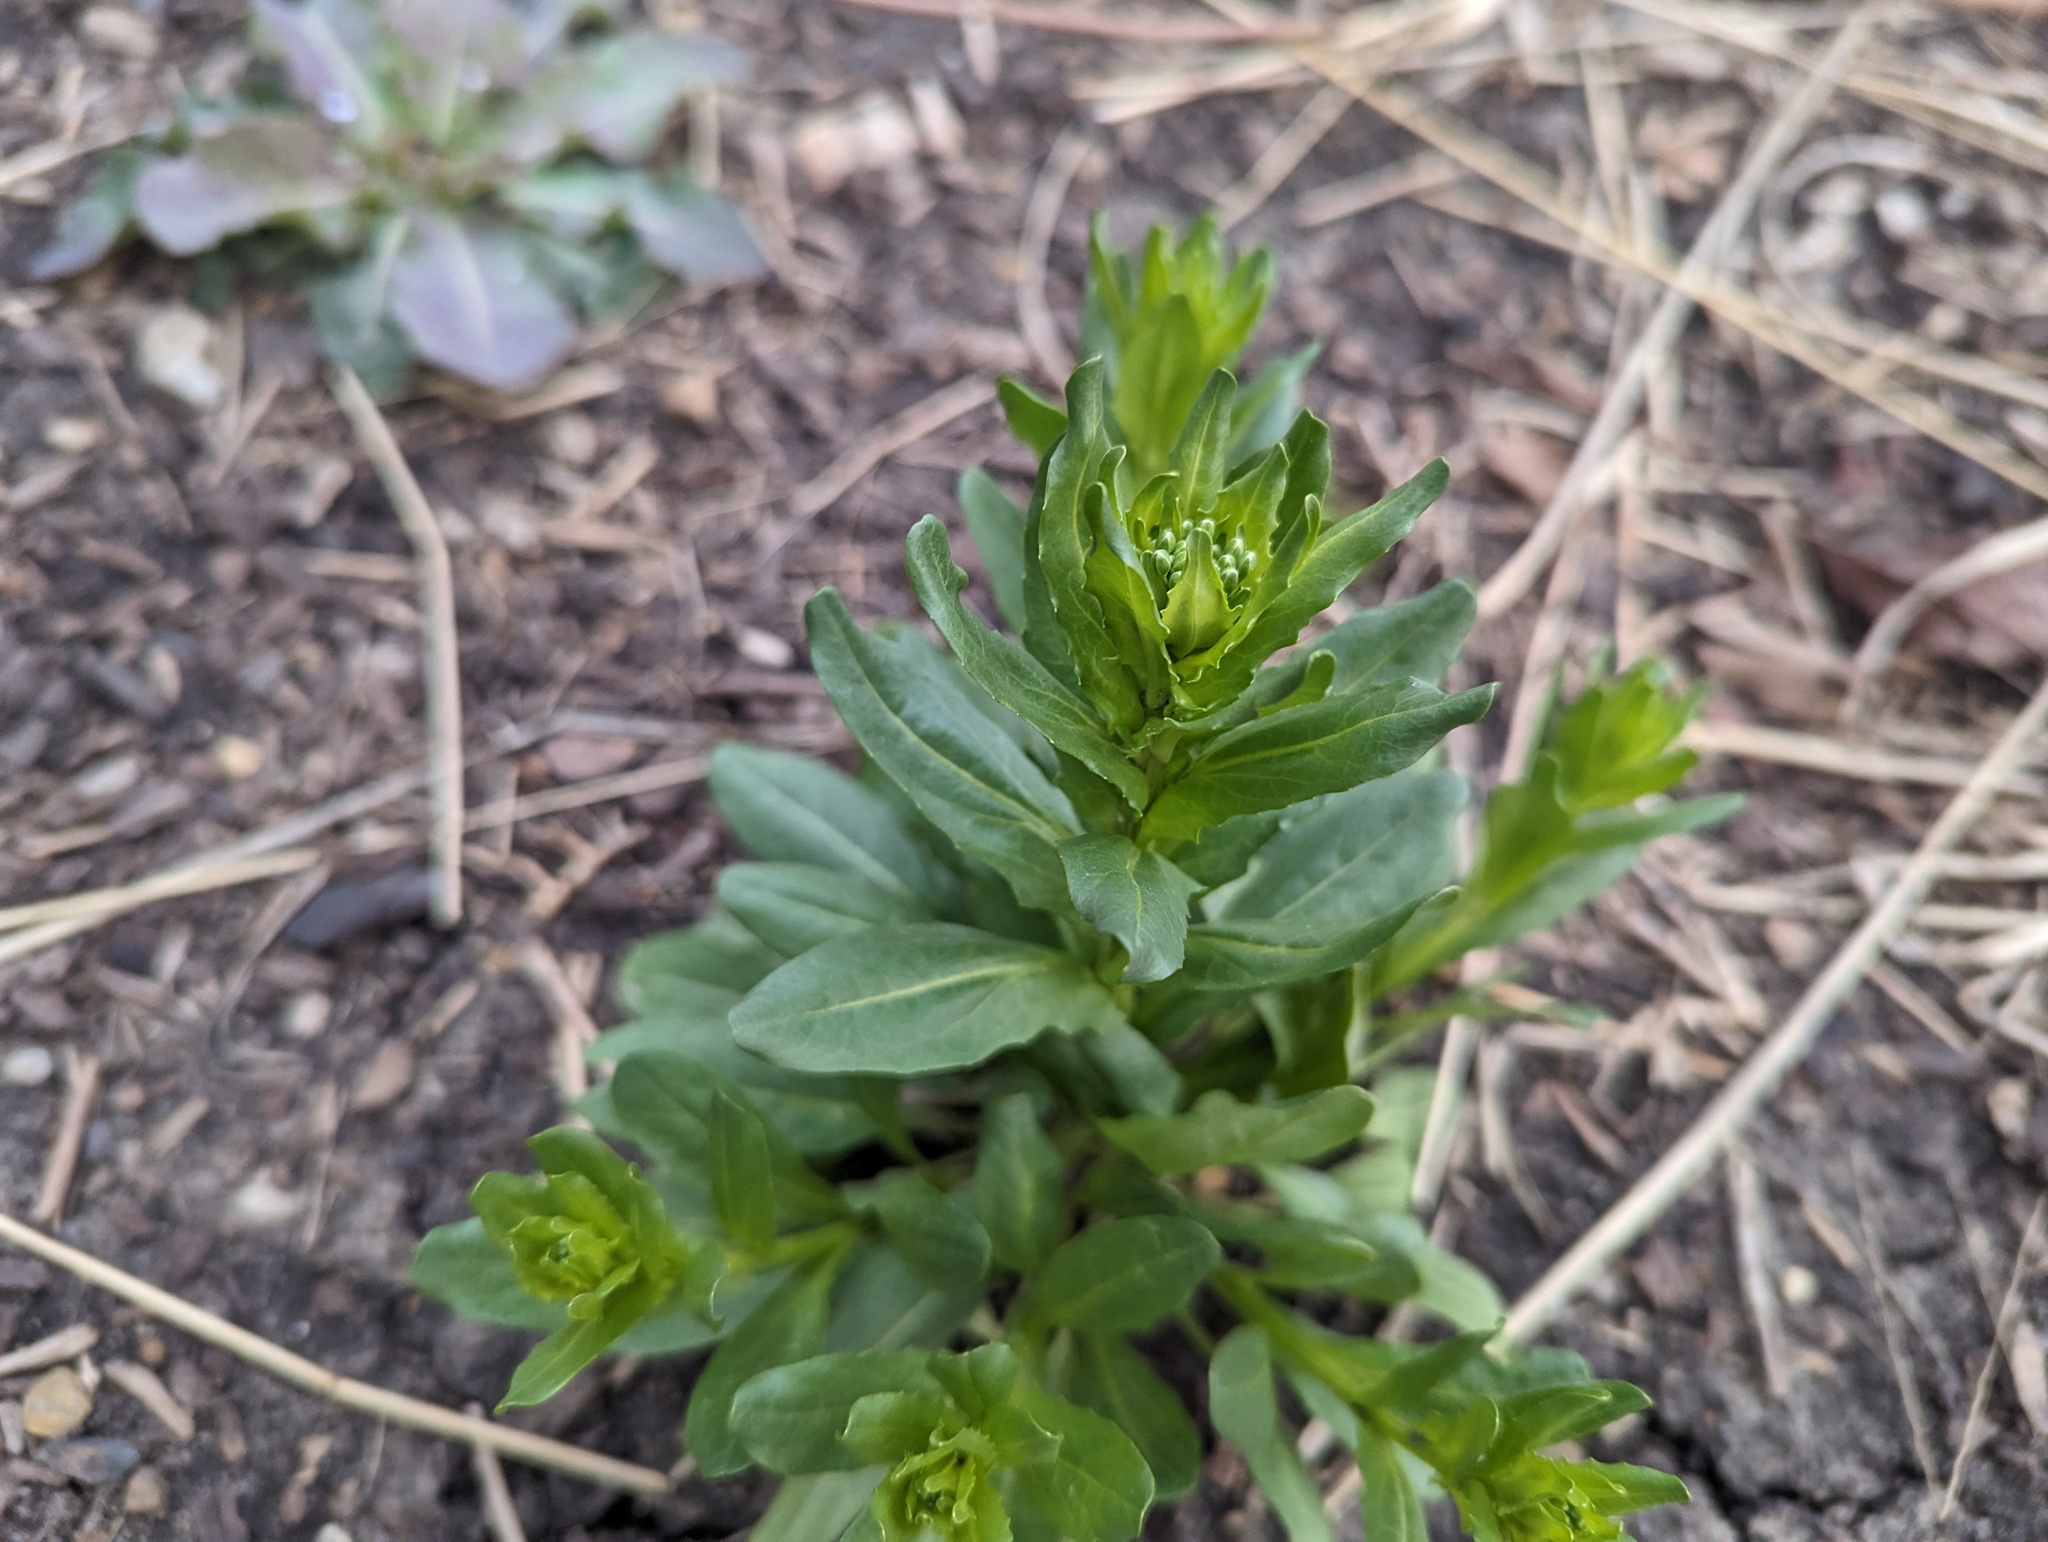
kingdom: Plantae
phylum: Tracheophyta
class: Magnoliopsida
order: Brassicales
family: Brassicaceae
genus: Thlaspi
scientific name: Thlaspi arvense
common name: Field pennycress
